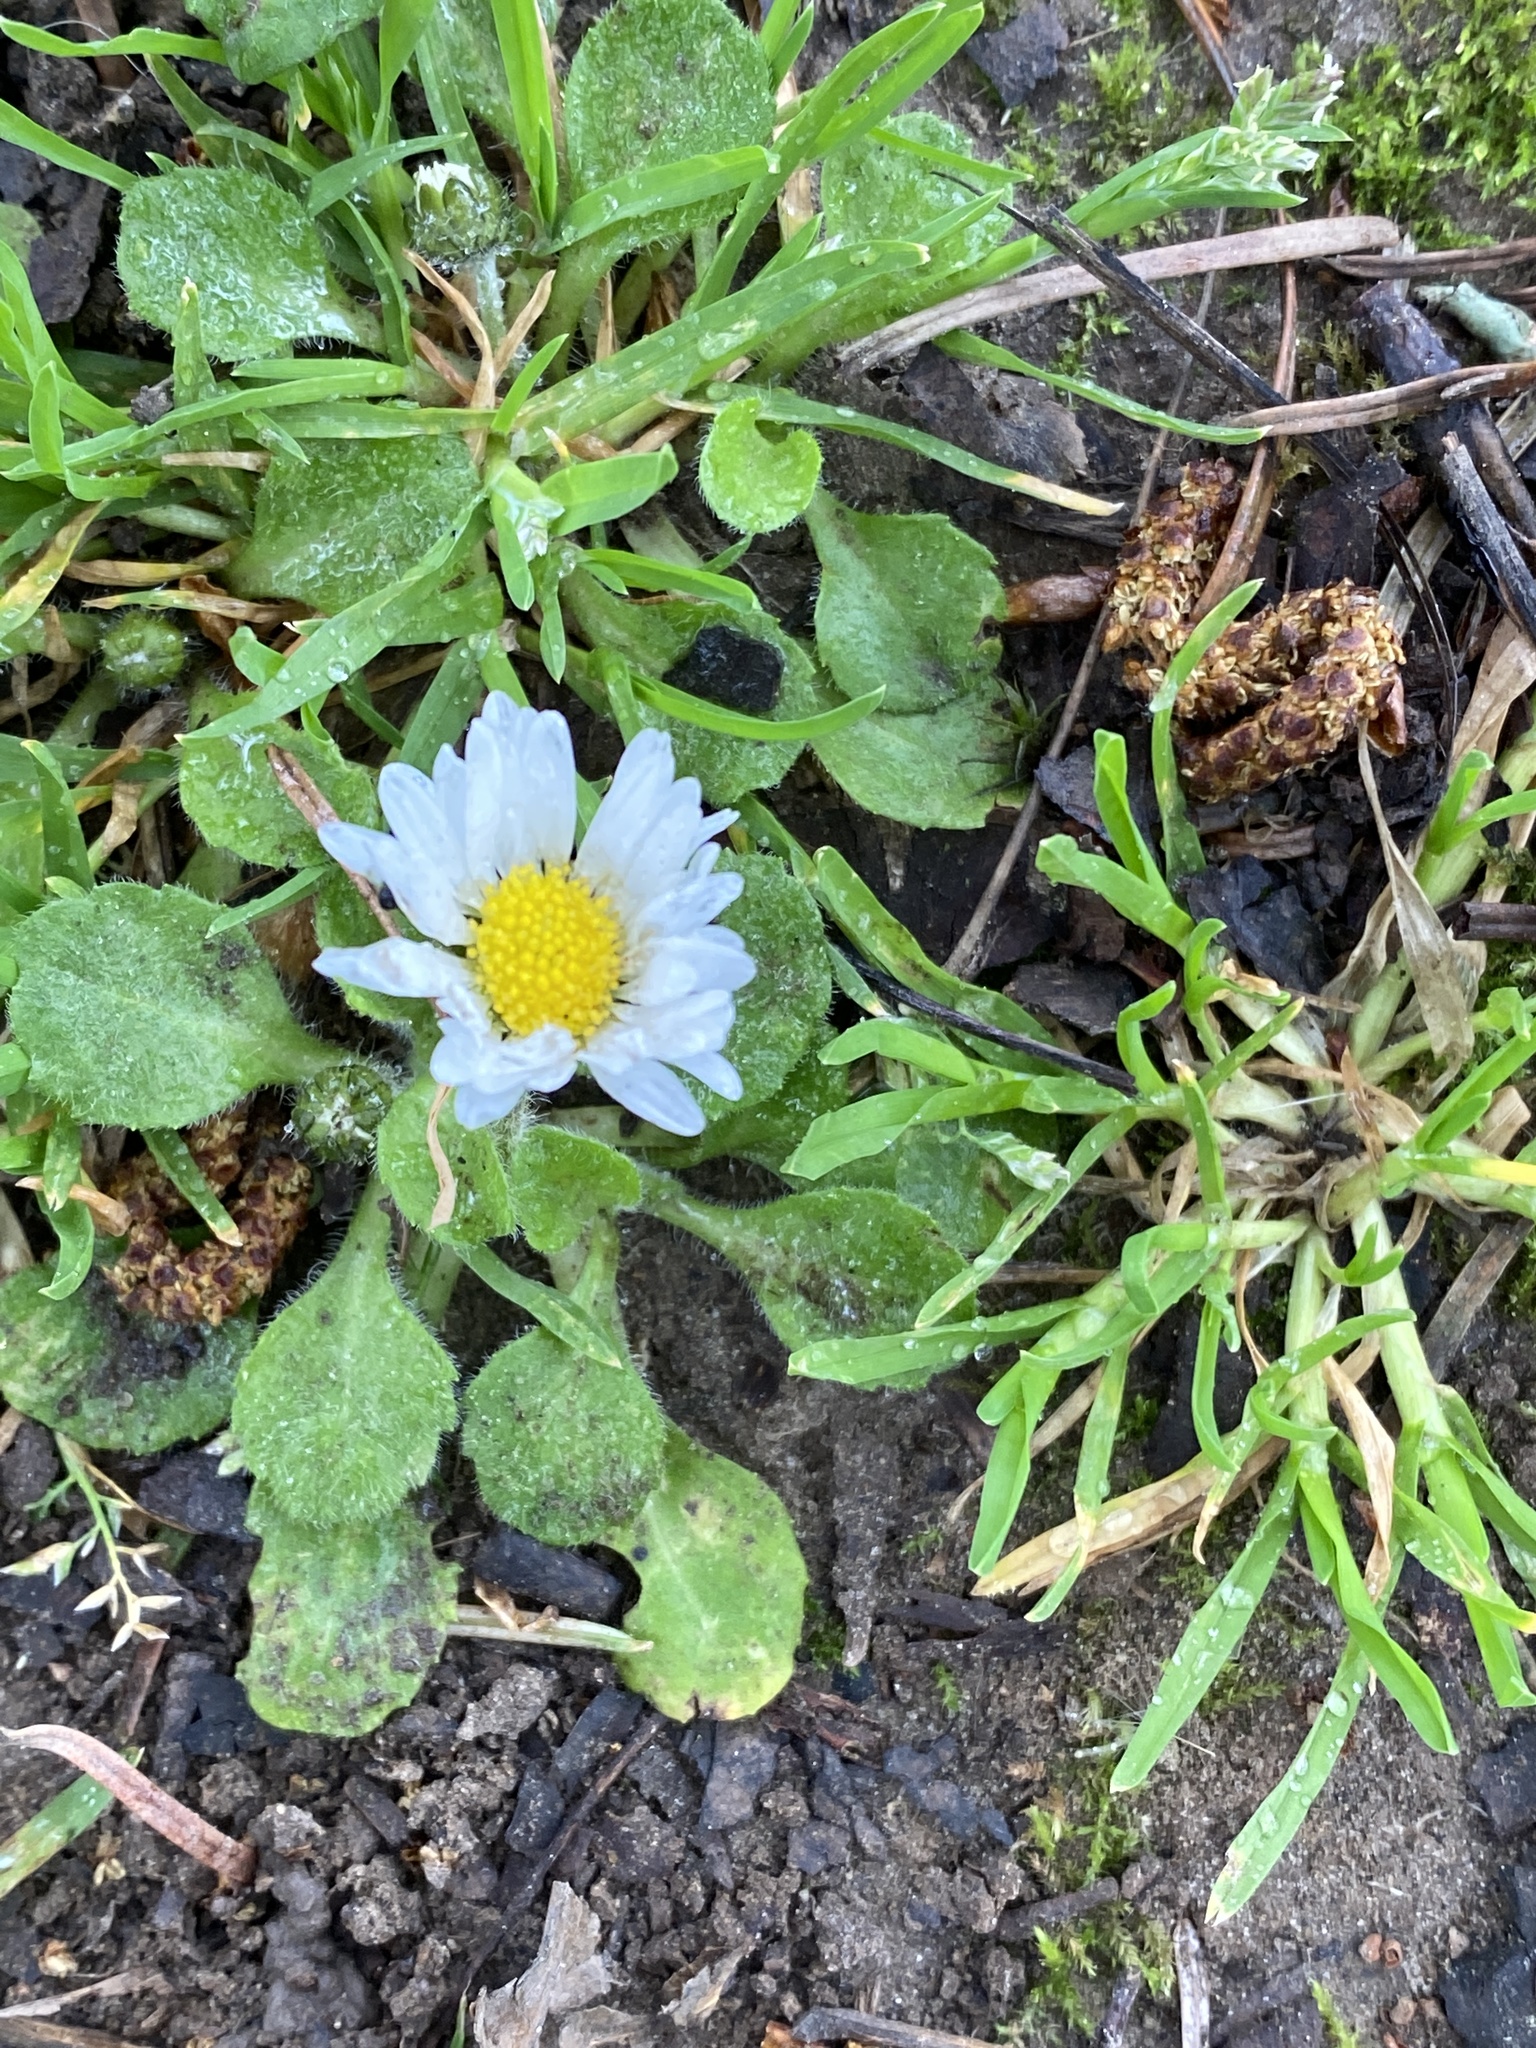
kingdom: Plantae
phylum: Tracheophyta
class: Magnoliopsida
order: Asterales
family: Asteraceae
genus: Bellis
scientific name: Bellis perennis
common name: Lawndaisy
